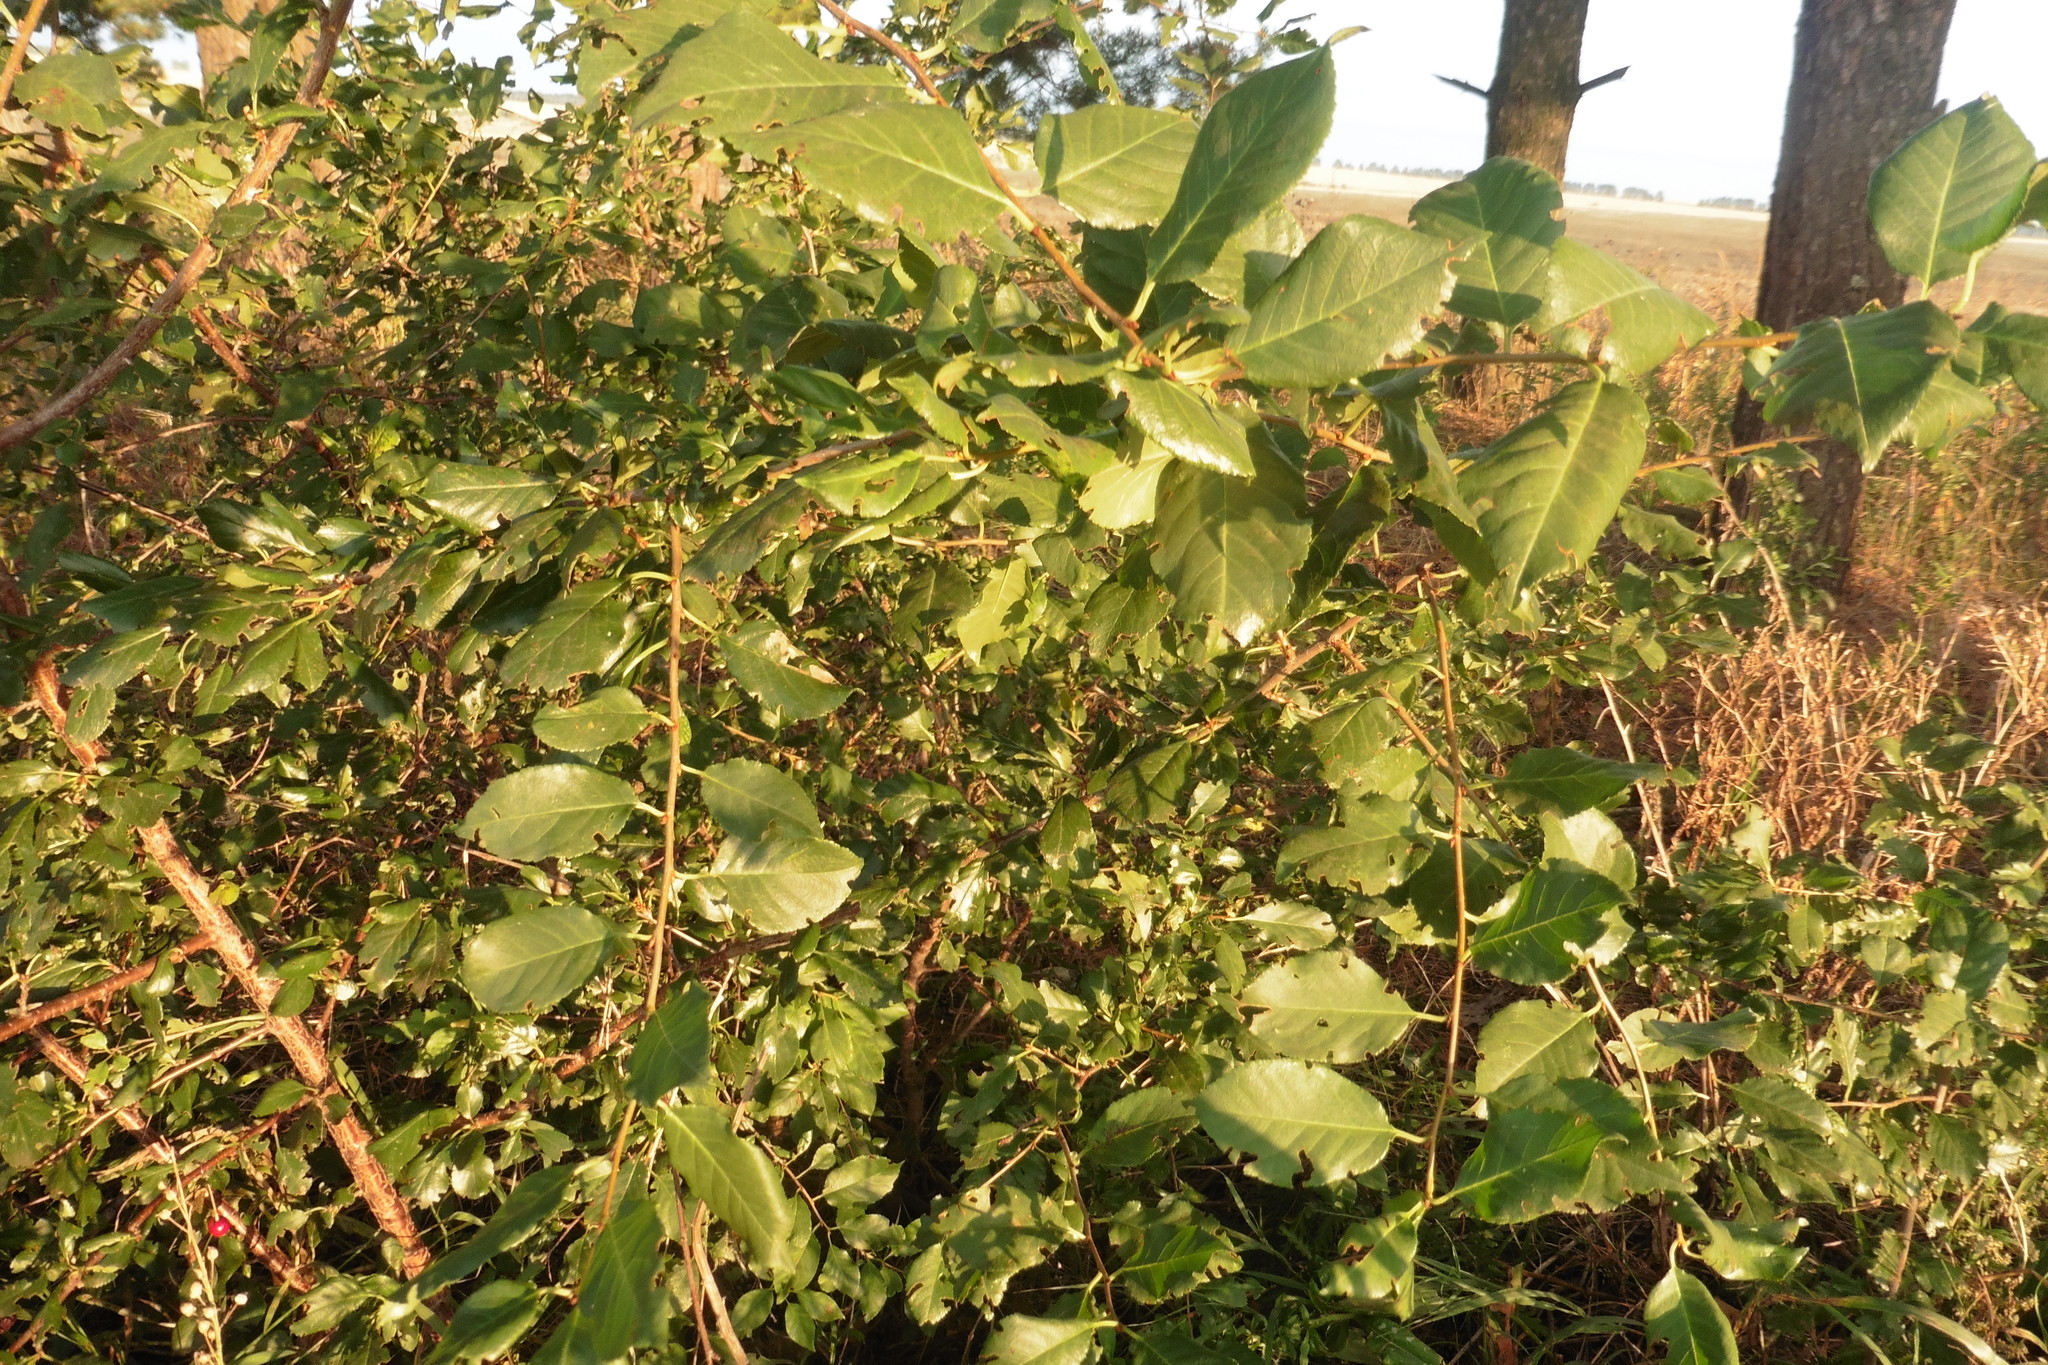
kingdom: Plantae
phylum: Tracheophyta
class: Magnoliopsida
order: Rosales
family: Rosaceae
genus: Prunus
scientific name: Prunus cerasus
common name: Morello cherry
